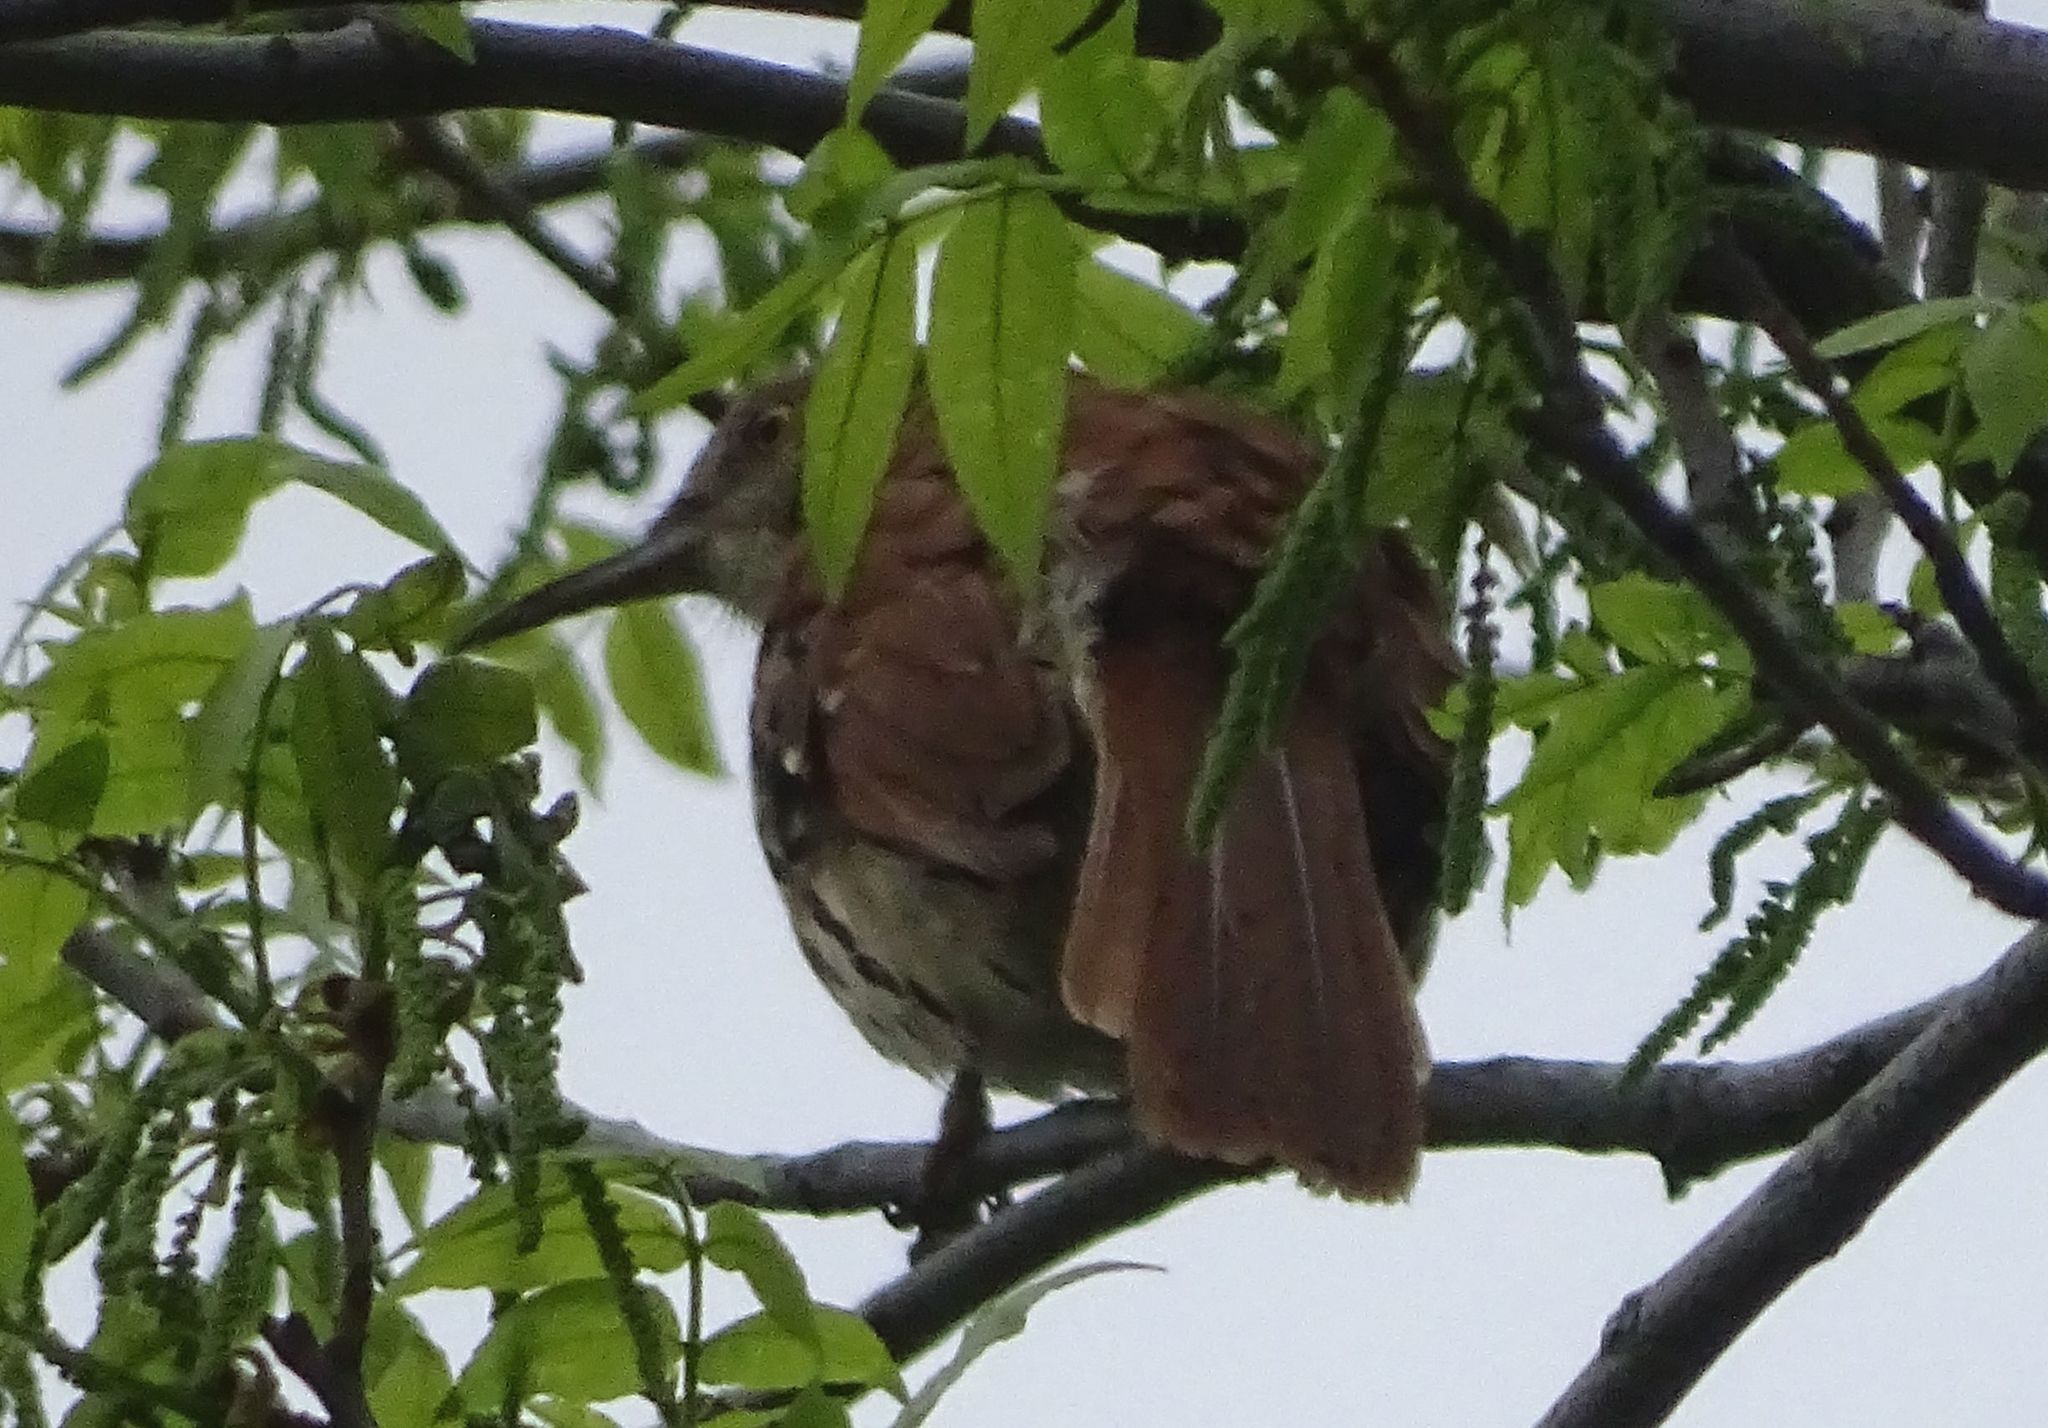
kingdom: Animalia
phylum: Chordata
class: Aves
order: Passeriformes
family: Mimidae
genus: Toxostoma
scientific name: Toxostoma rufum
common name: Brown thrasher
